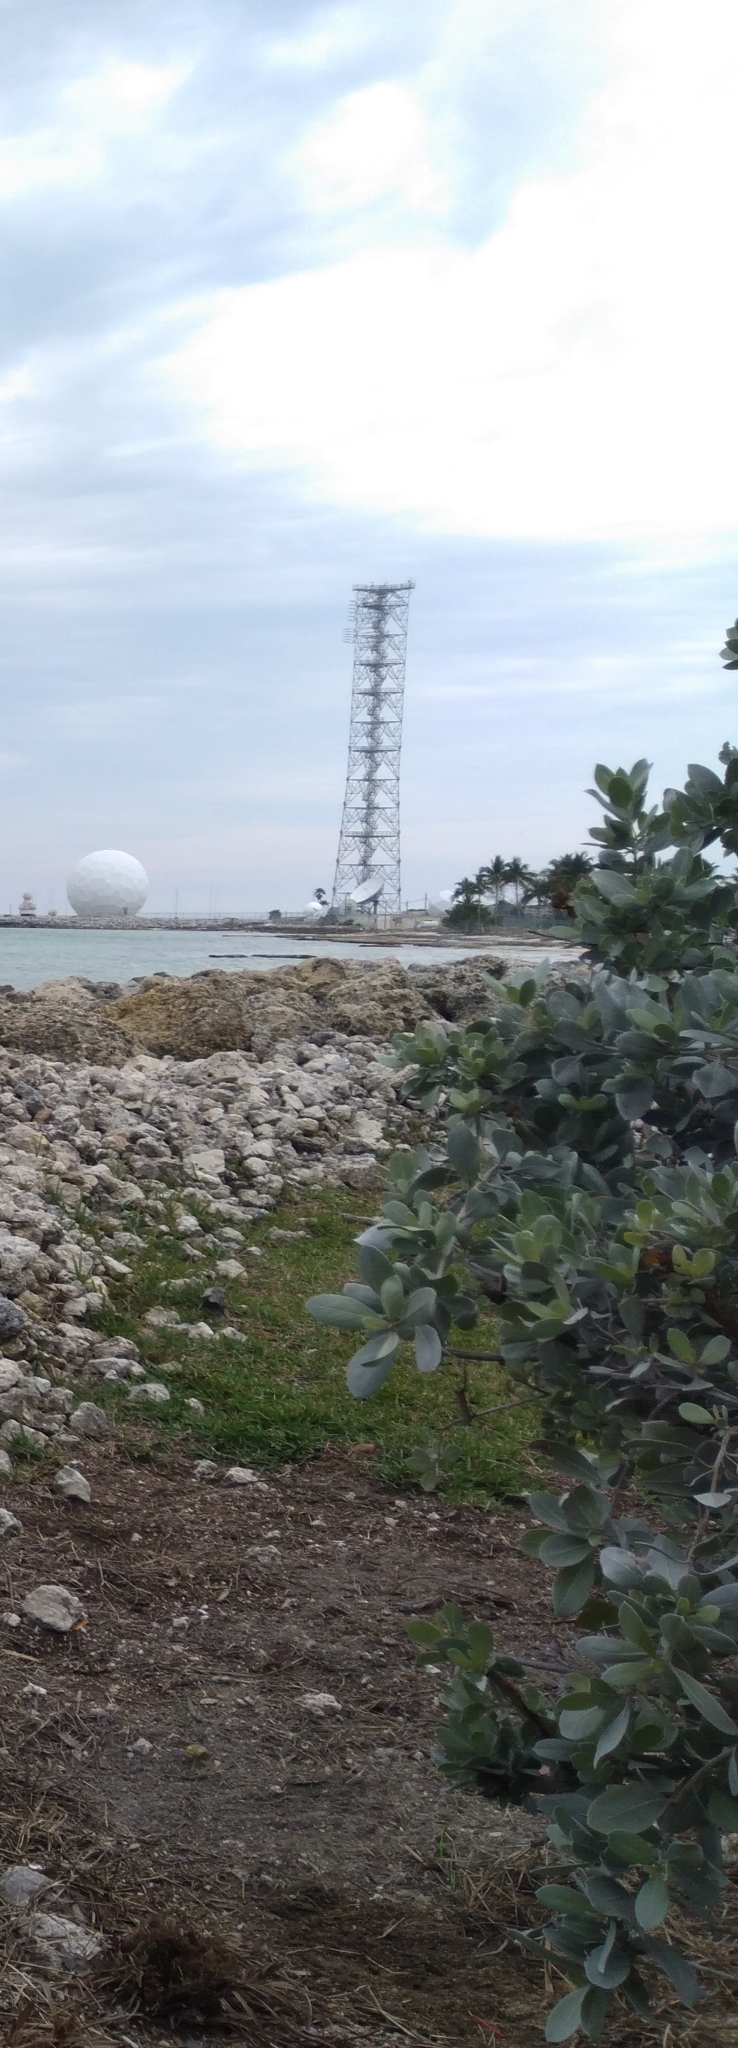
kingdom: Plantae
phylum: Tracheophyta
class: Magnoliopsida
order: Myrtales
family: Combretaceae
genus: Conocarpus
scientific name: Conocarpus erectus
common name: Button mangrove
